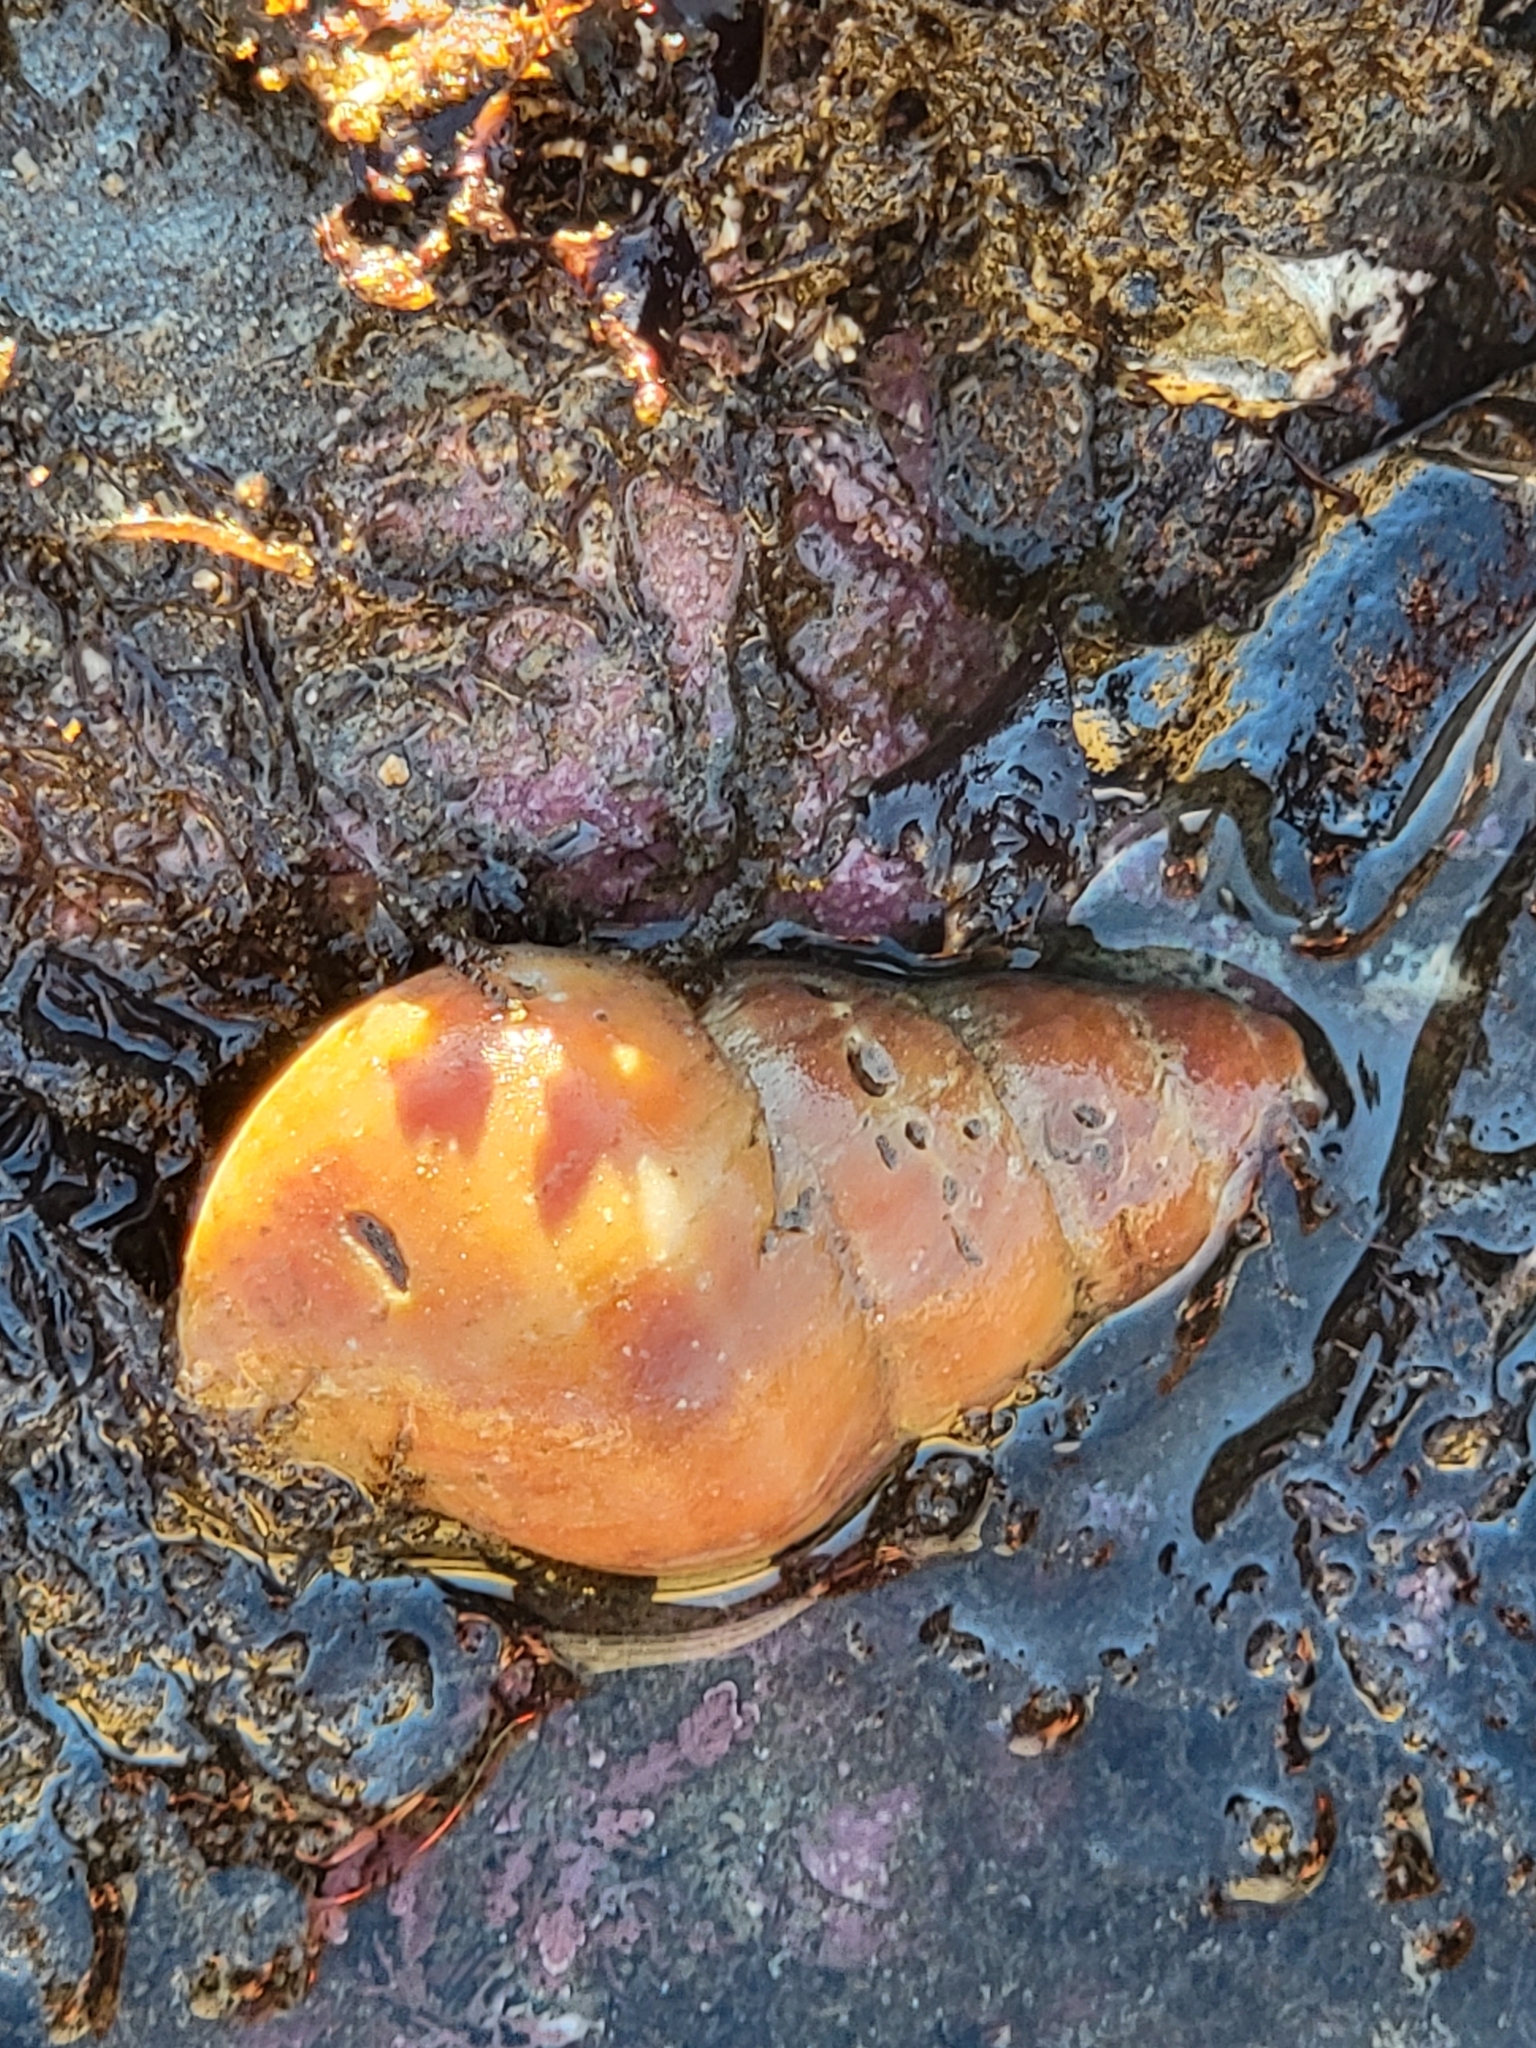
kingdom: Animalia
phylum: Mollusca
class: Gastropoda
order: Neogastropoda
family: Muricidae
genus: Nucella
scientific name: Nucella lamellosa
